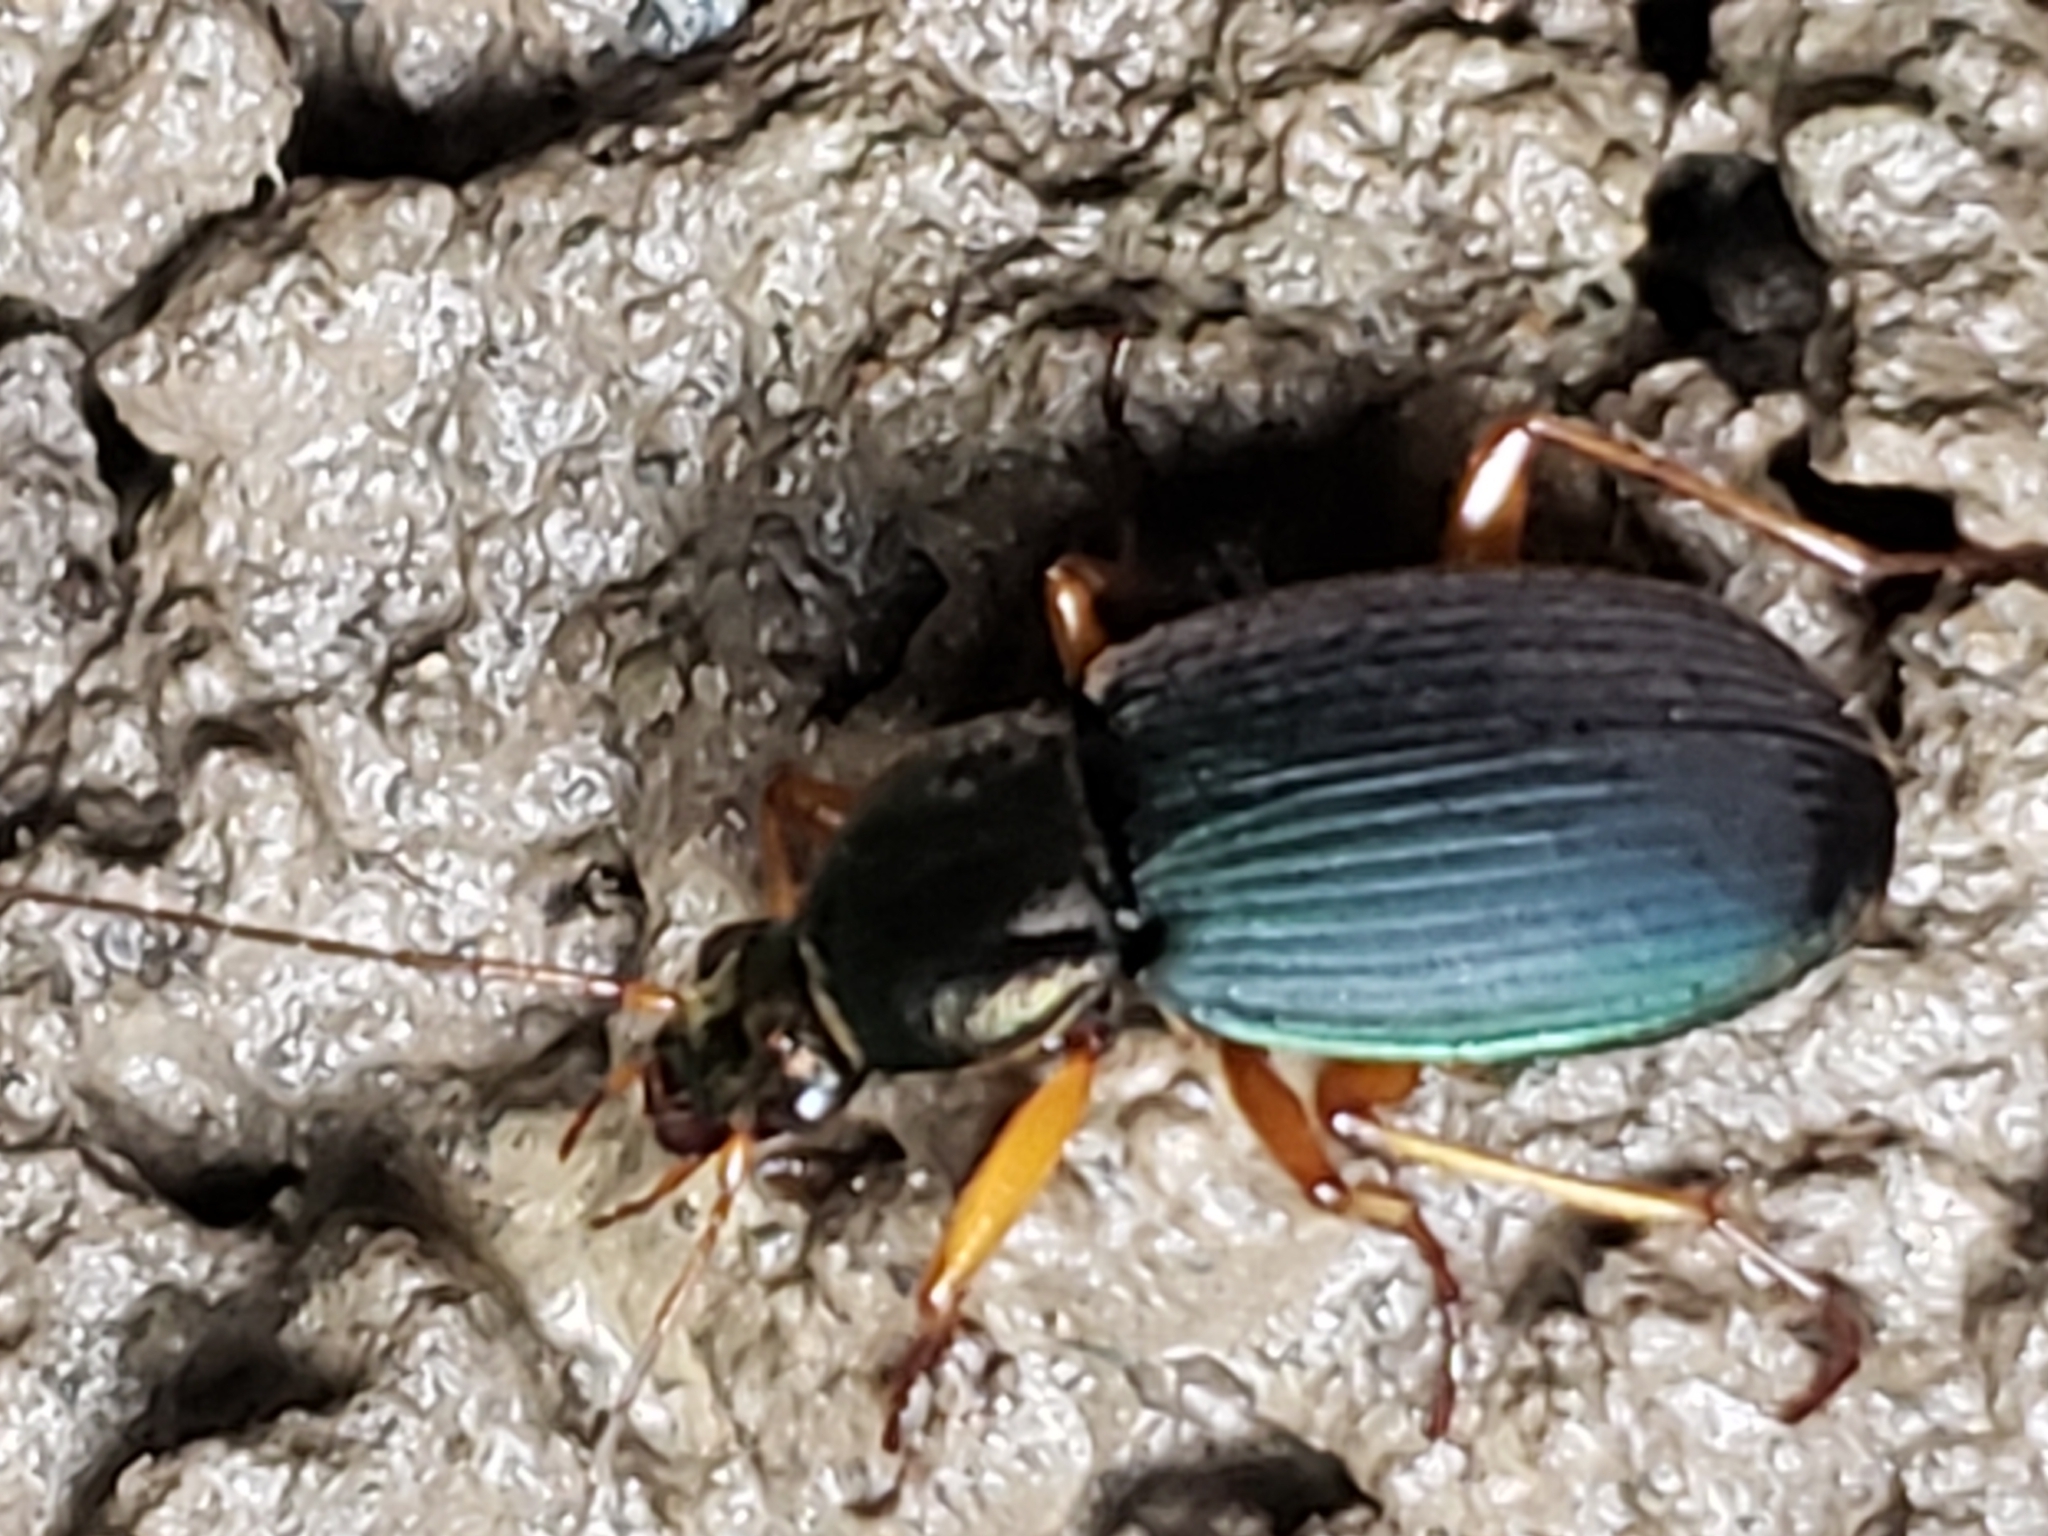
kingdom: Animalia
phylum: Arthropoda
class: Insecta
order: Coleoptera
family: Carabidae
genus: Chlaenius
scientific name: Chlaenius aestivus
